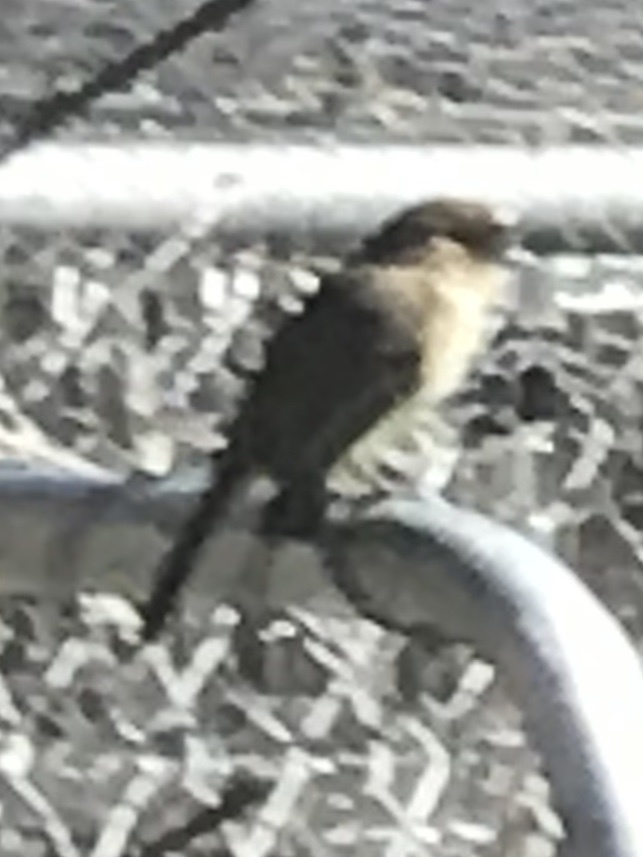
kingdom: Animalia
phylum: Chordata
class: Aves
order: Passeriformes
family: Tyrannidae
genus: Sayornis
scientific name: Sayornis phoebe
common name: Eastern phoebe
